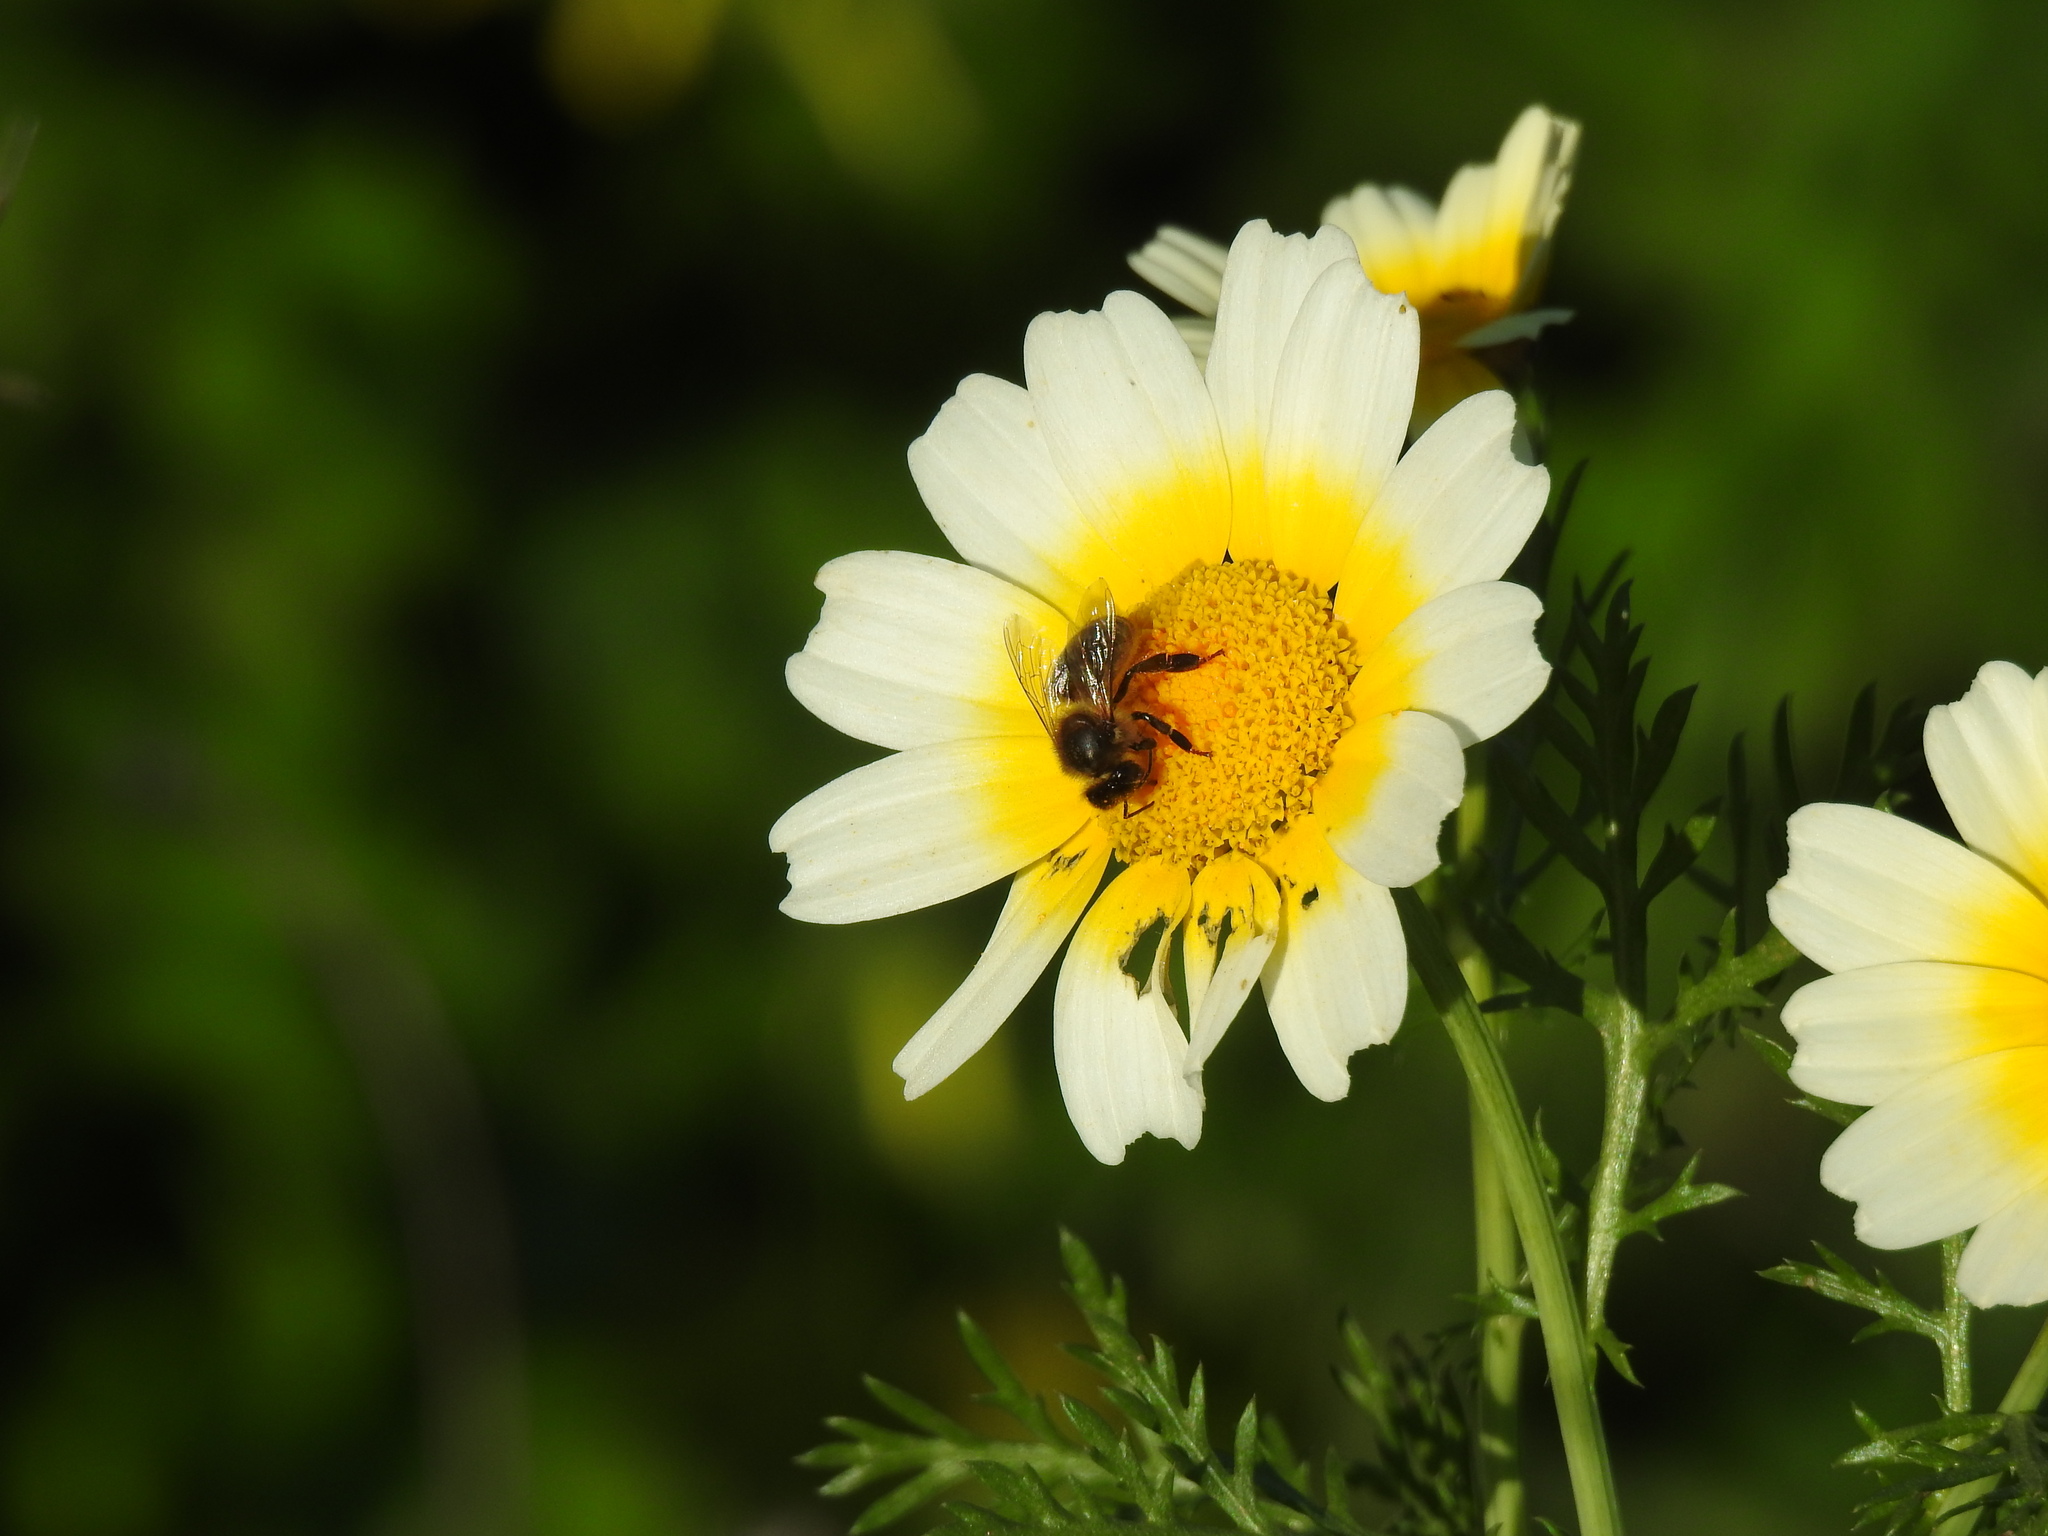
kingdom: Animalia
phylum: Arthropoda
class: Insecta
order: Hymenoptera
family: Apidae
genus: Apis
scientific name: Apis mellifera
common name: Honey bee
